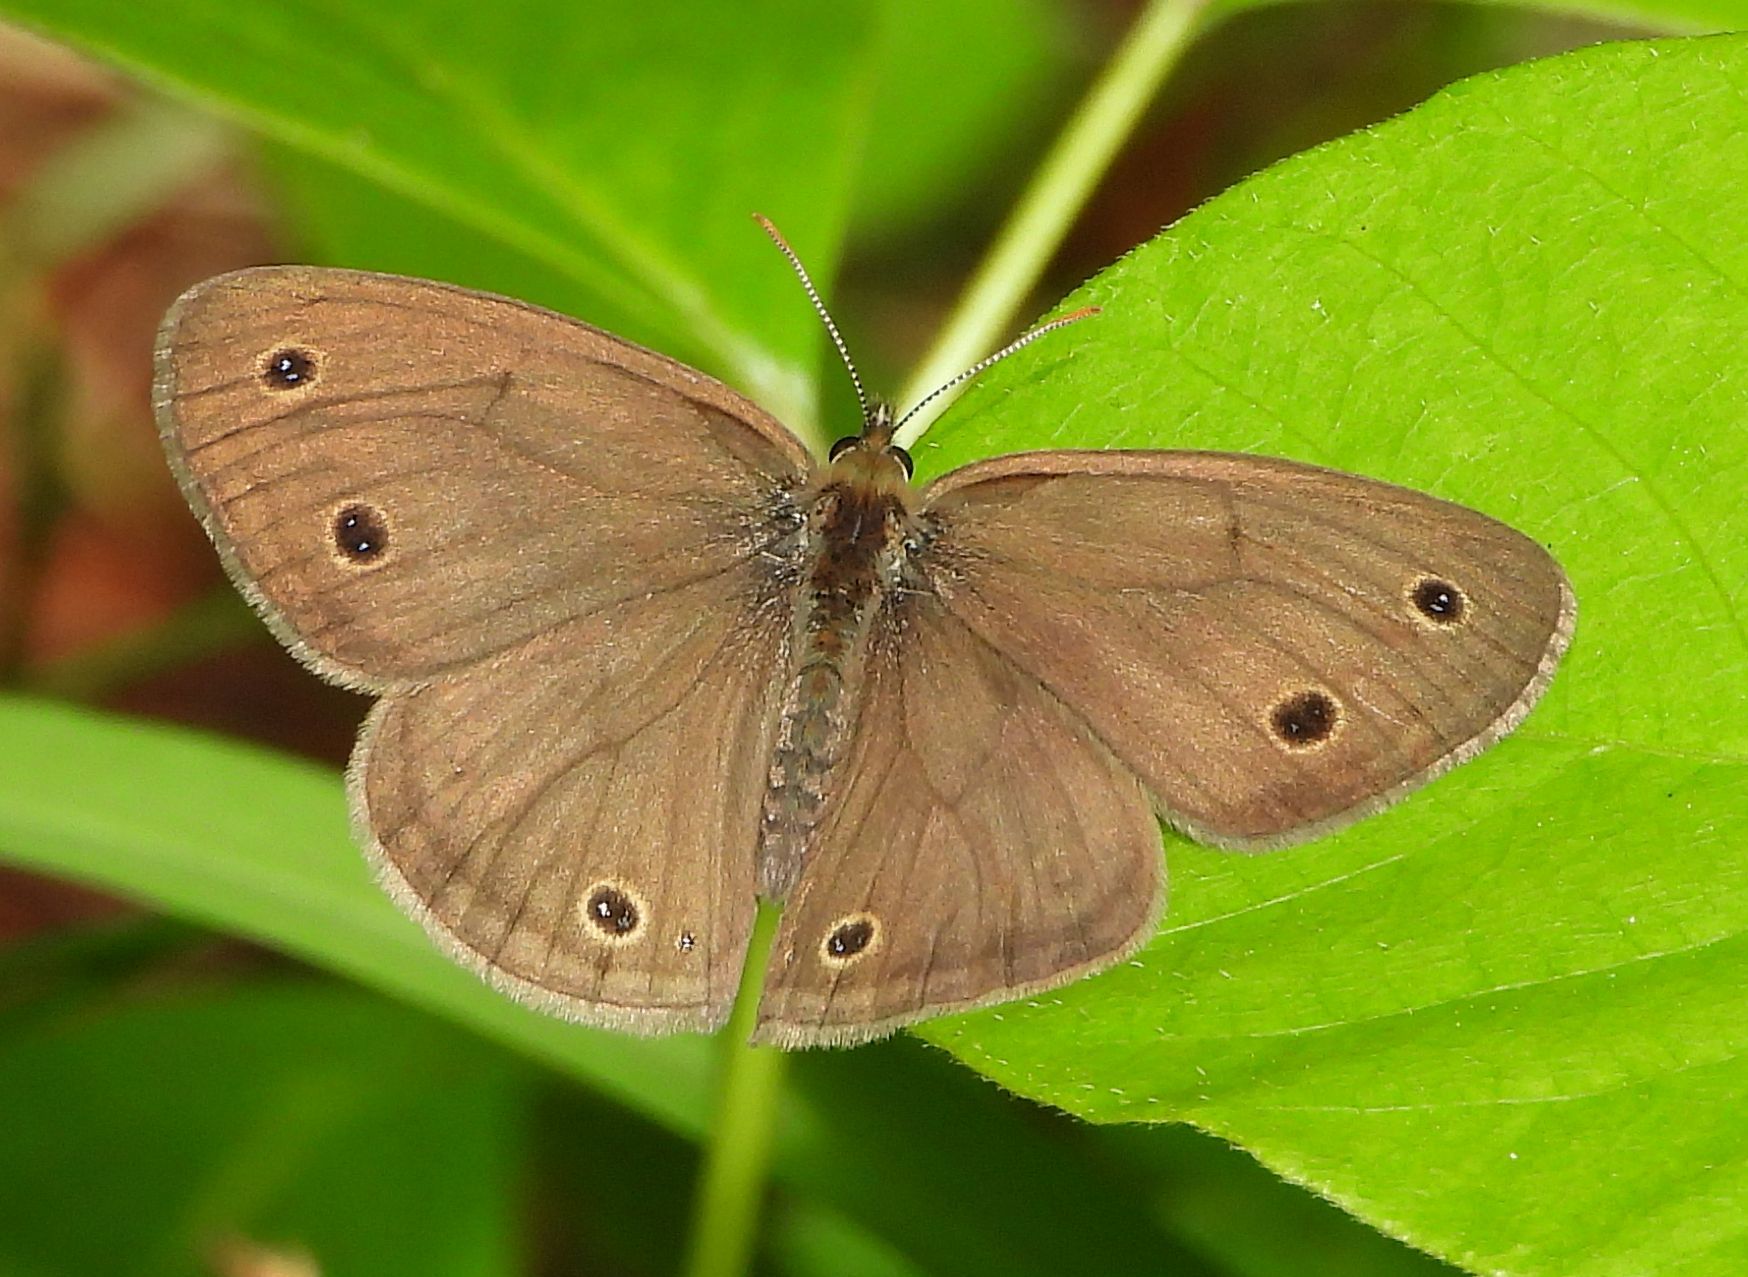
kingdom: Animalia
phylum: Arthropoda
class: Insecta
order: Lepidoptera
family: Nymphalidae
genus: Euptychia
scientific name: Euptychia cymela
